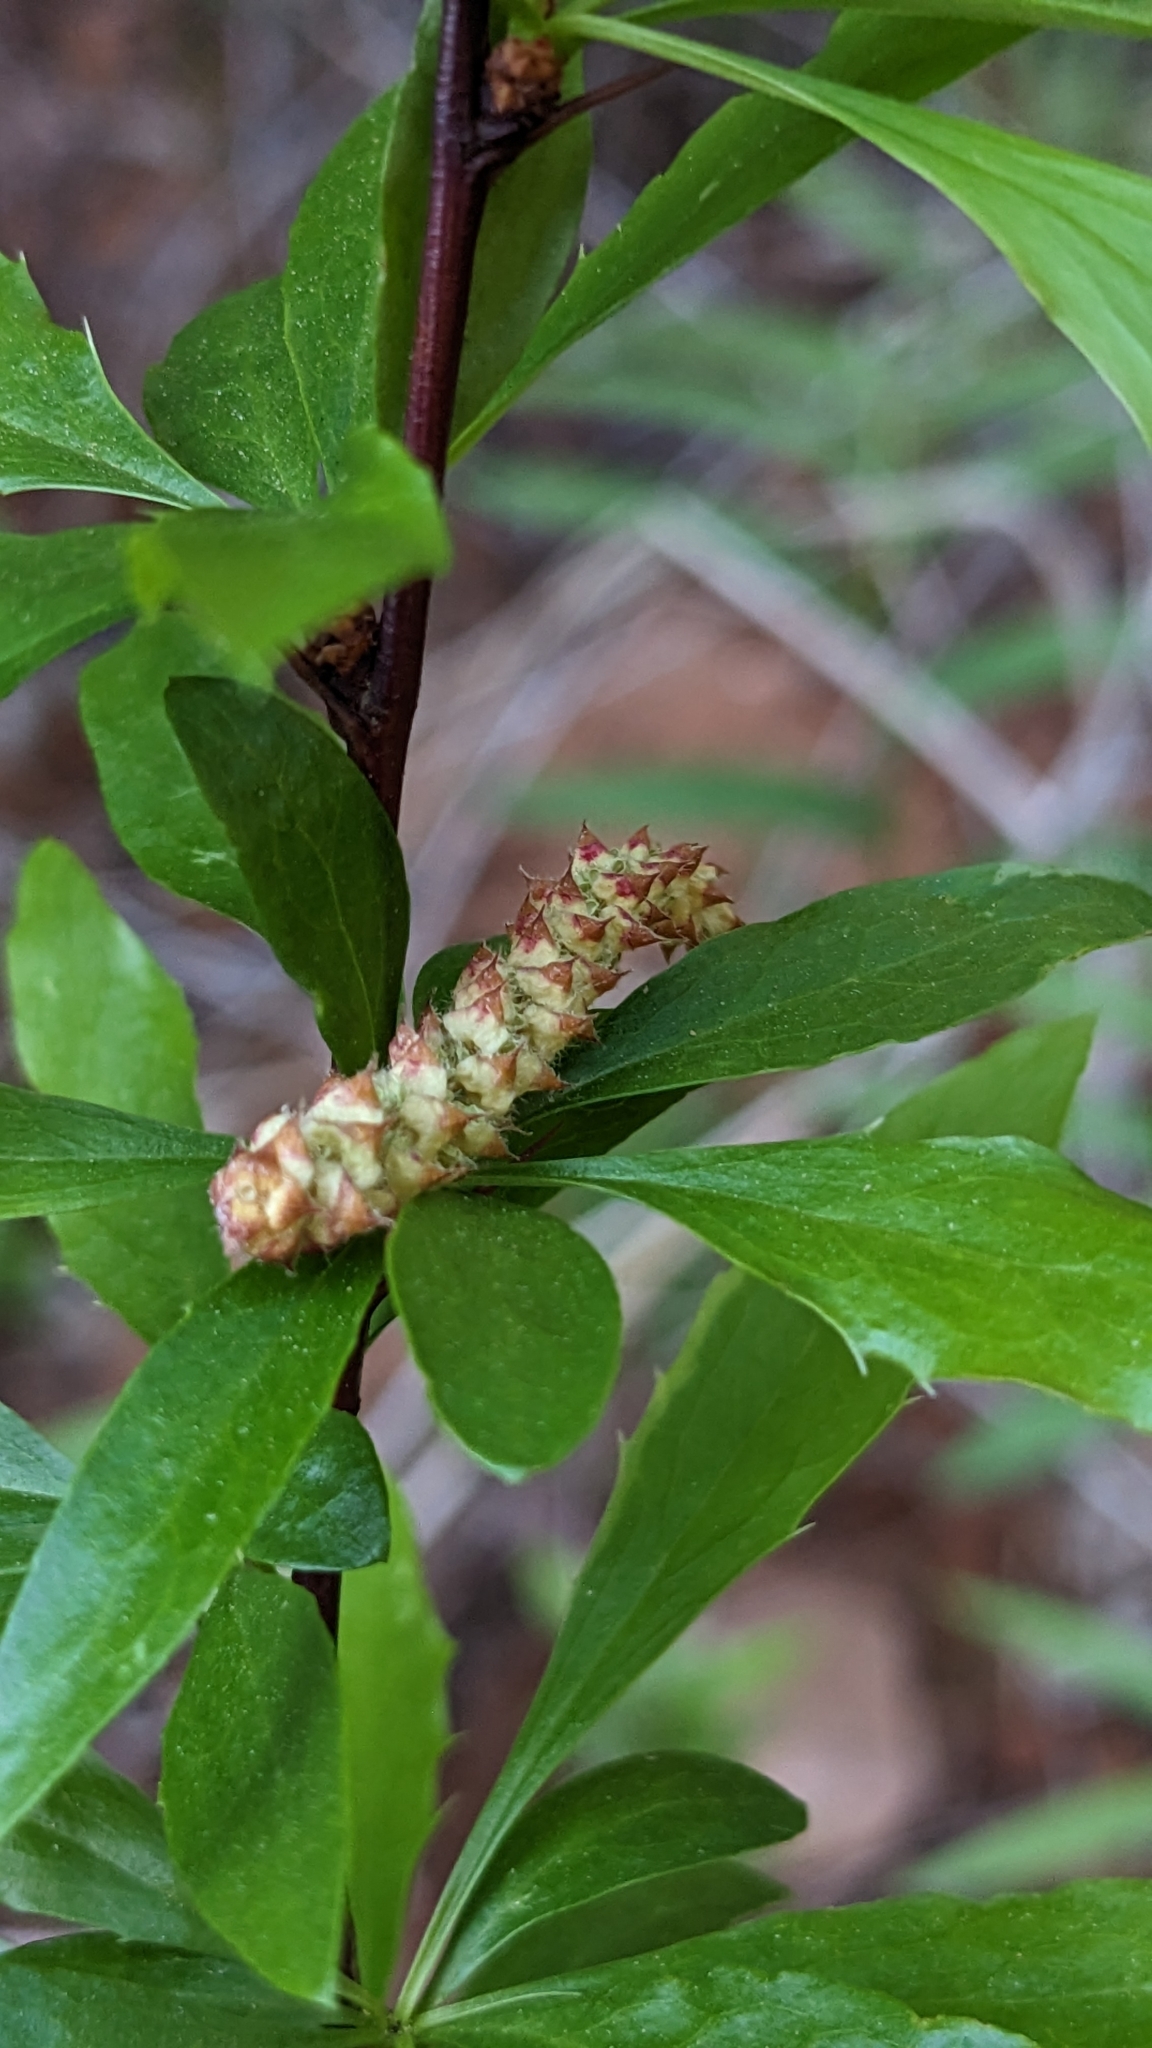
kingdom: Plantae
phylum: Tracheophyta
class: Magnoliopsida
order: Fagales
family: Betulaceae
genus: Ostrya
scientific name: Ostrya knowltonii
